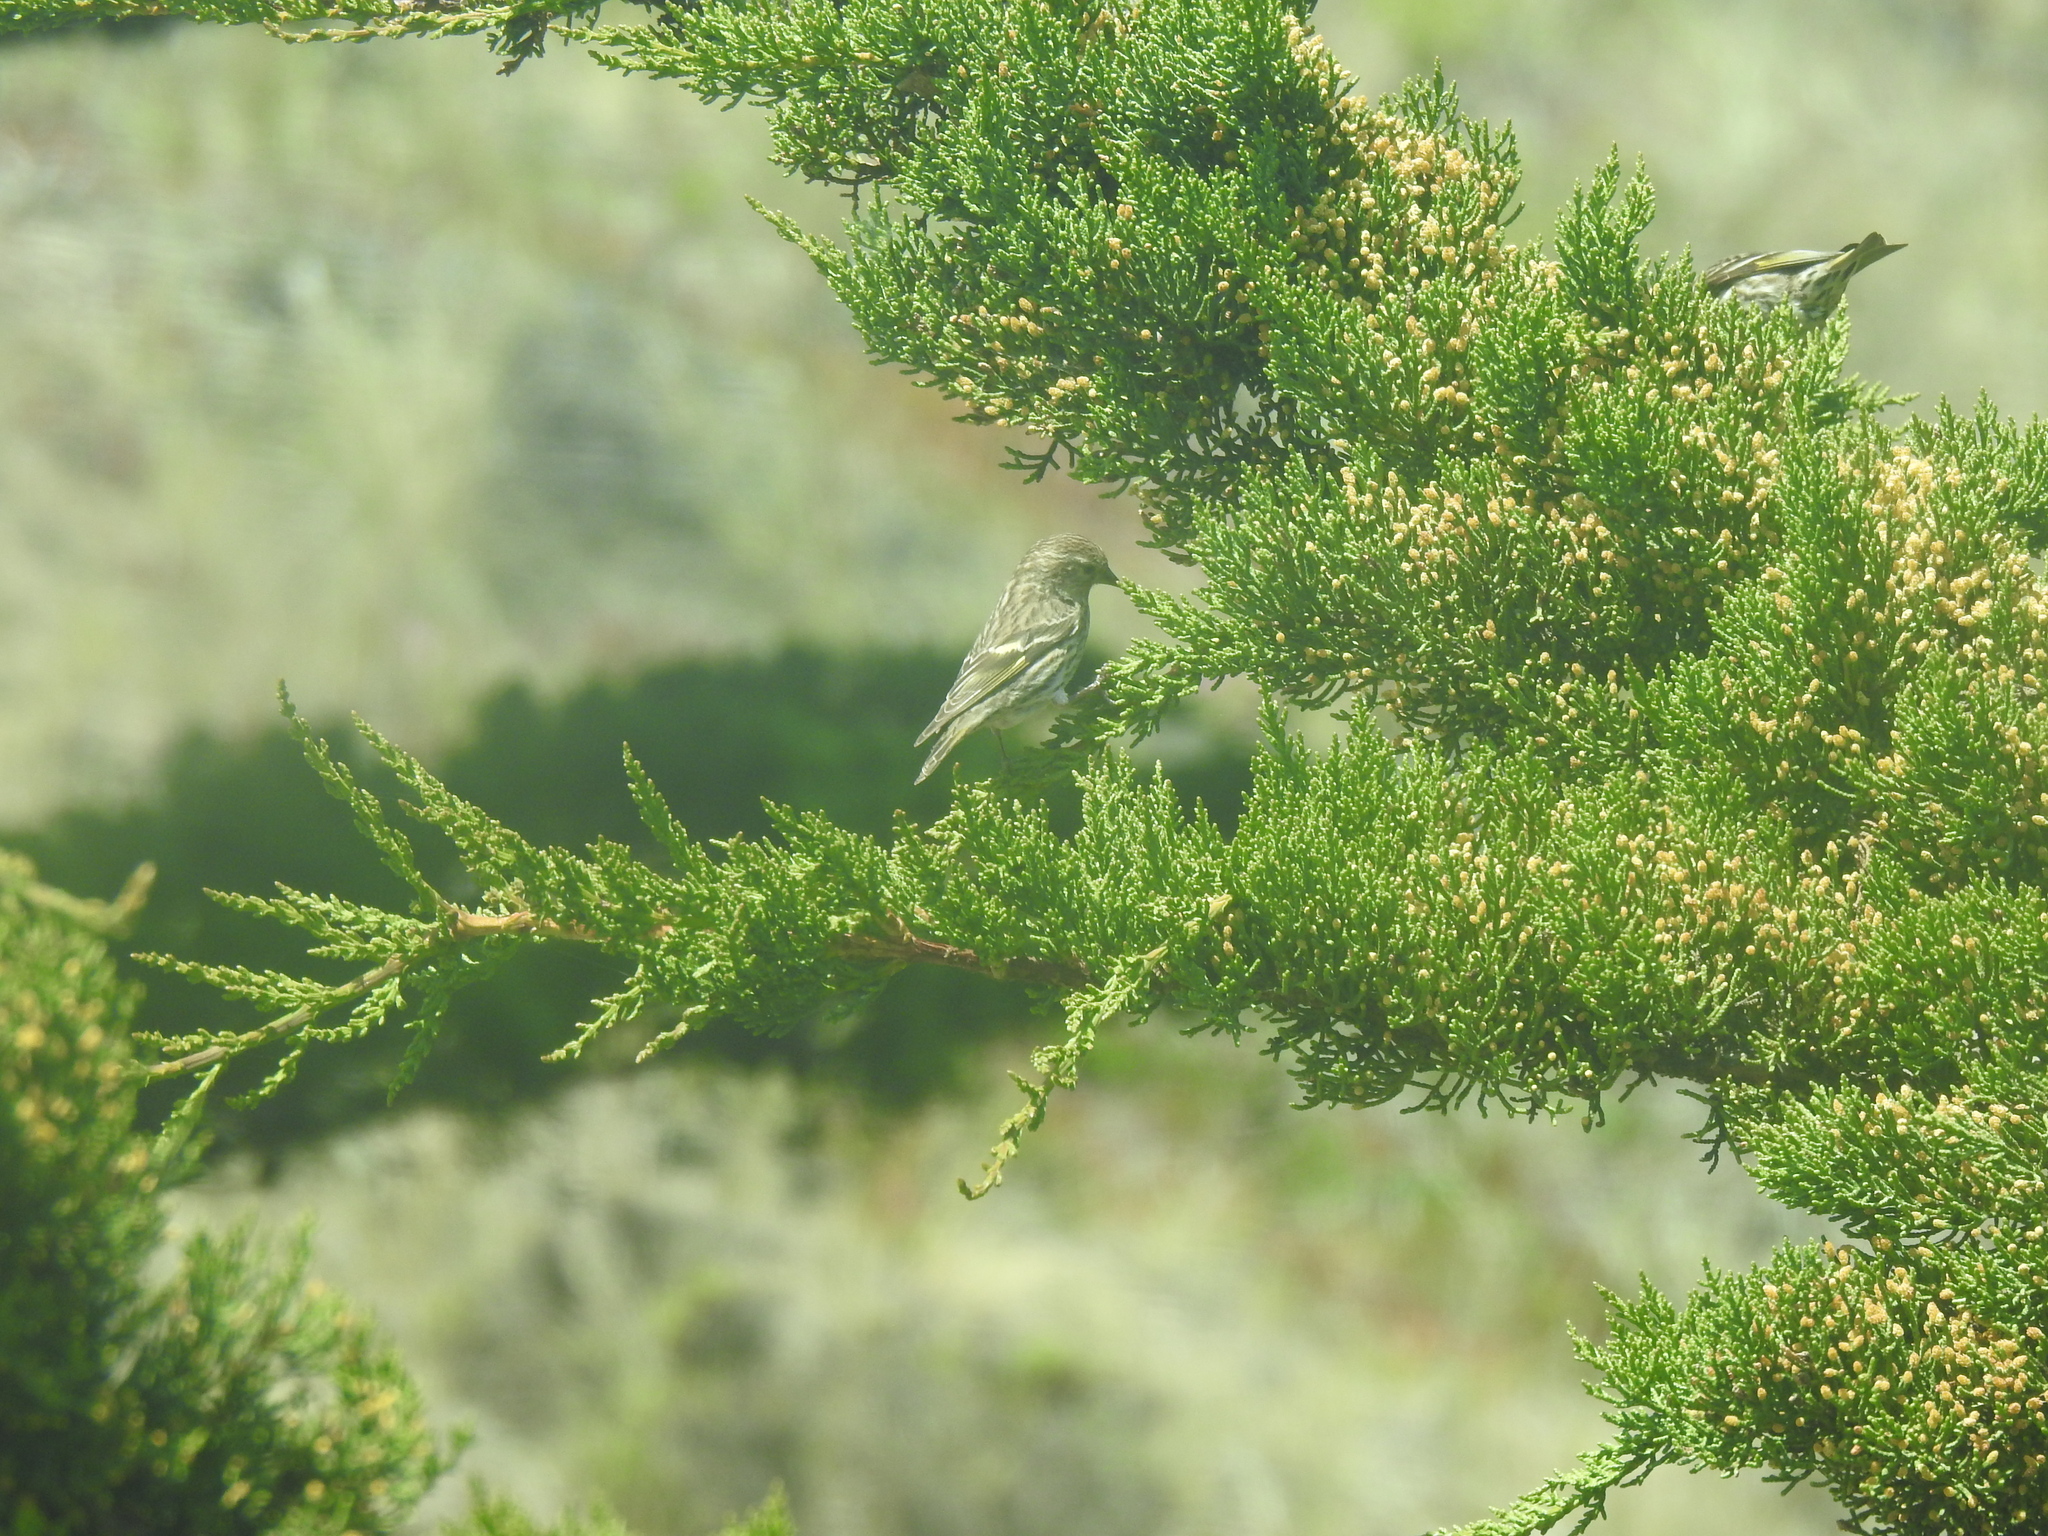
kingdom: Animalia
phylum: Chordata
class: Aves
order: Passeriformes
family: Fringillidae
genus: Spinus
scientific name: Spinus pinus
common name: Pine siskin
